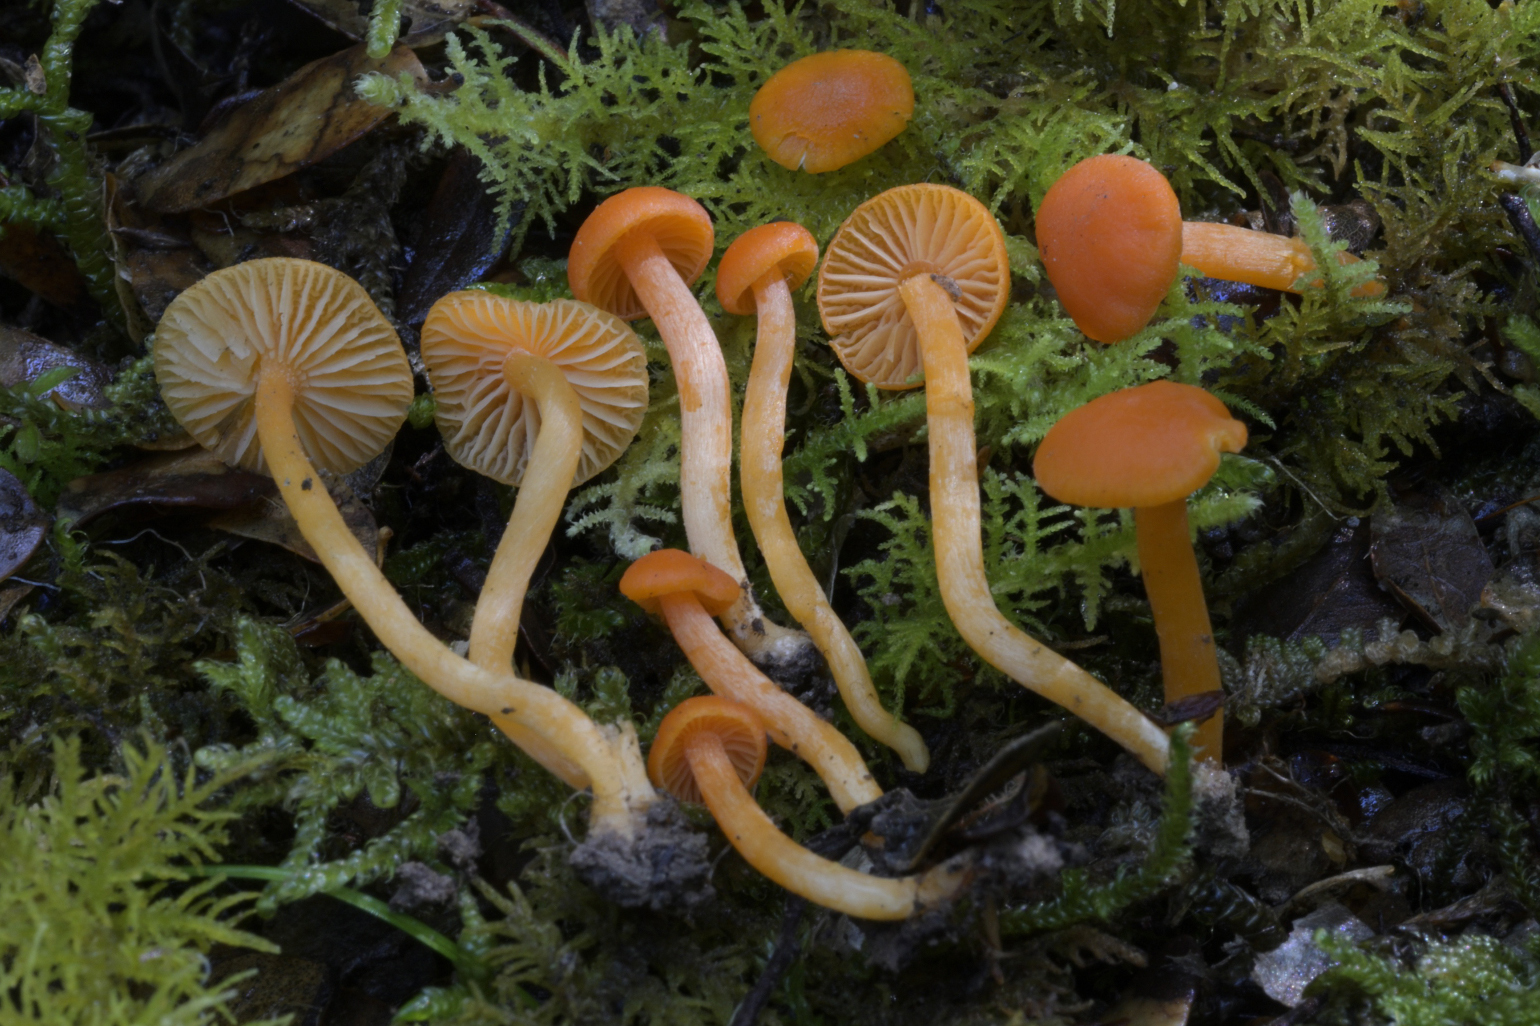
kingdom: Fungi
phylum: Basidiomycota
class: Agaricomycetes
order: Agaricales
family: Hygrophoraceae
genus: Cuphophyllus
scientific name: Cuphophyllus
